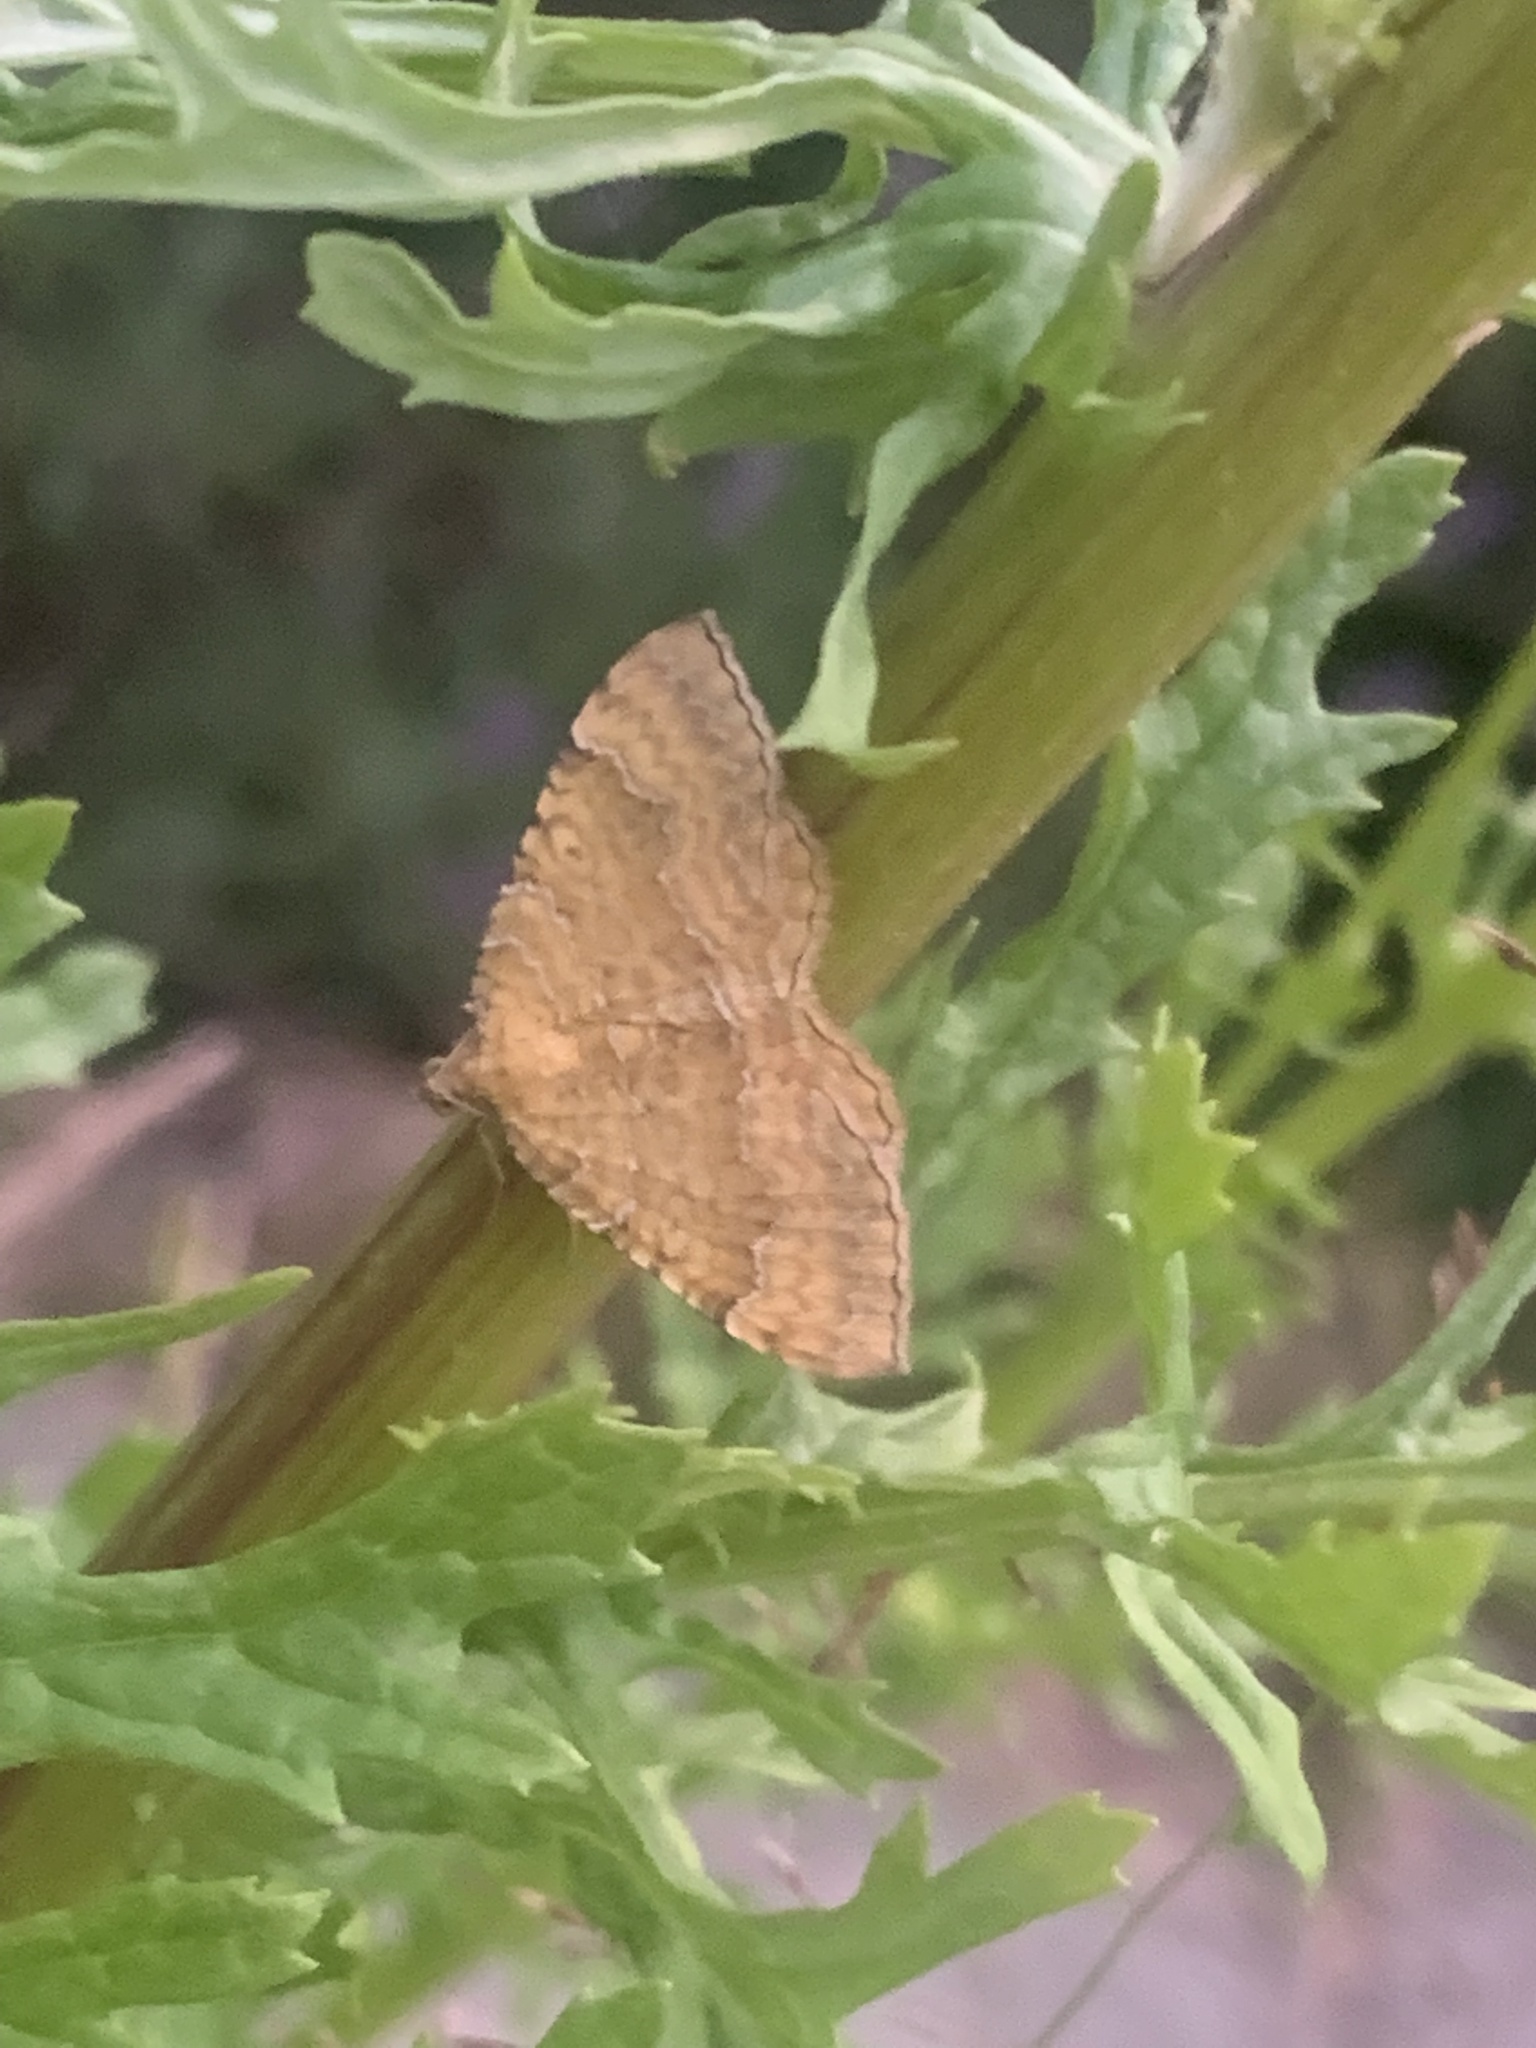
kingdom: Animalia
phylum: Arthropoda
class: Insecta
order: Lepidoptera
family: Geometridae
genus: Camptogramma
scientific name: Camptogramma bilineata
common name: Yellow shell
